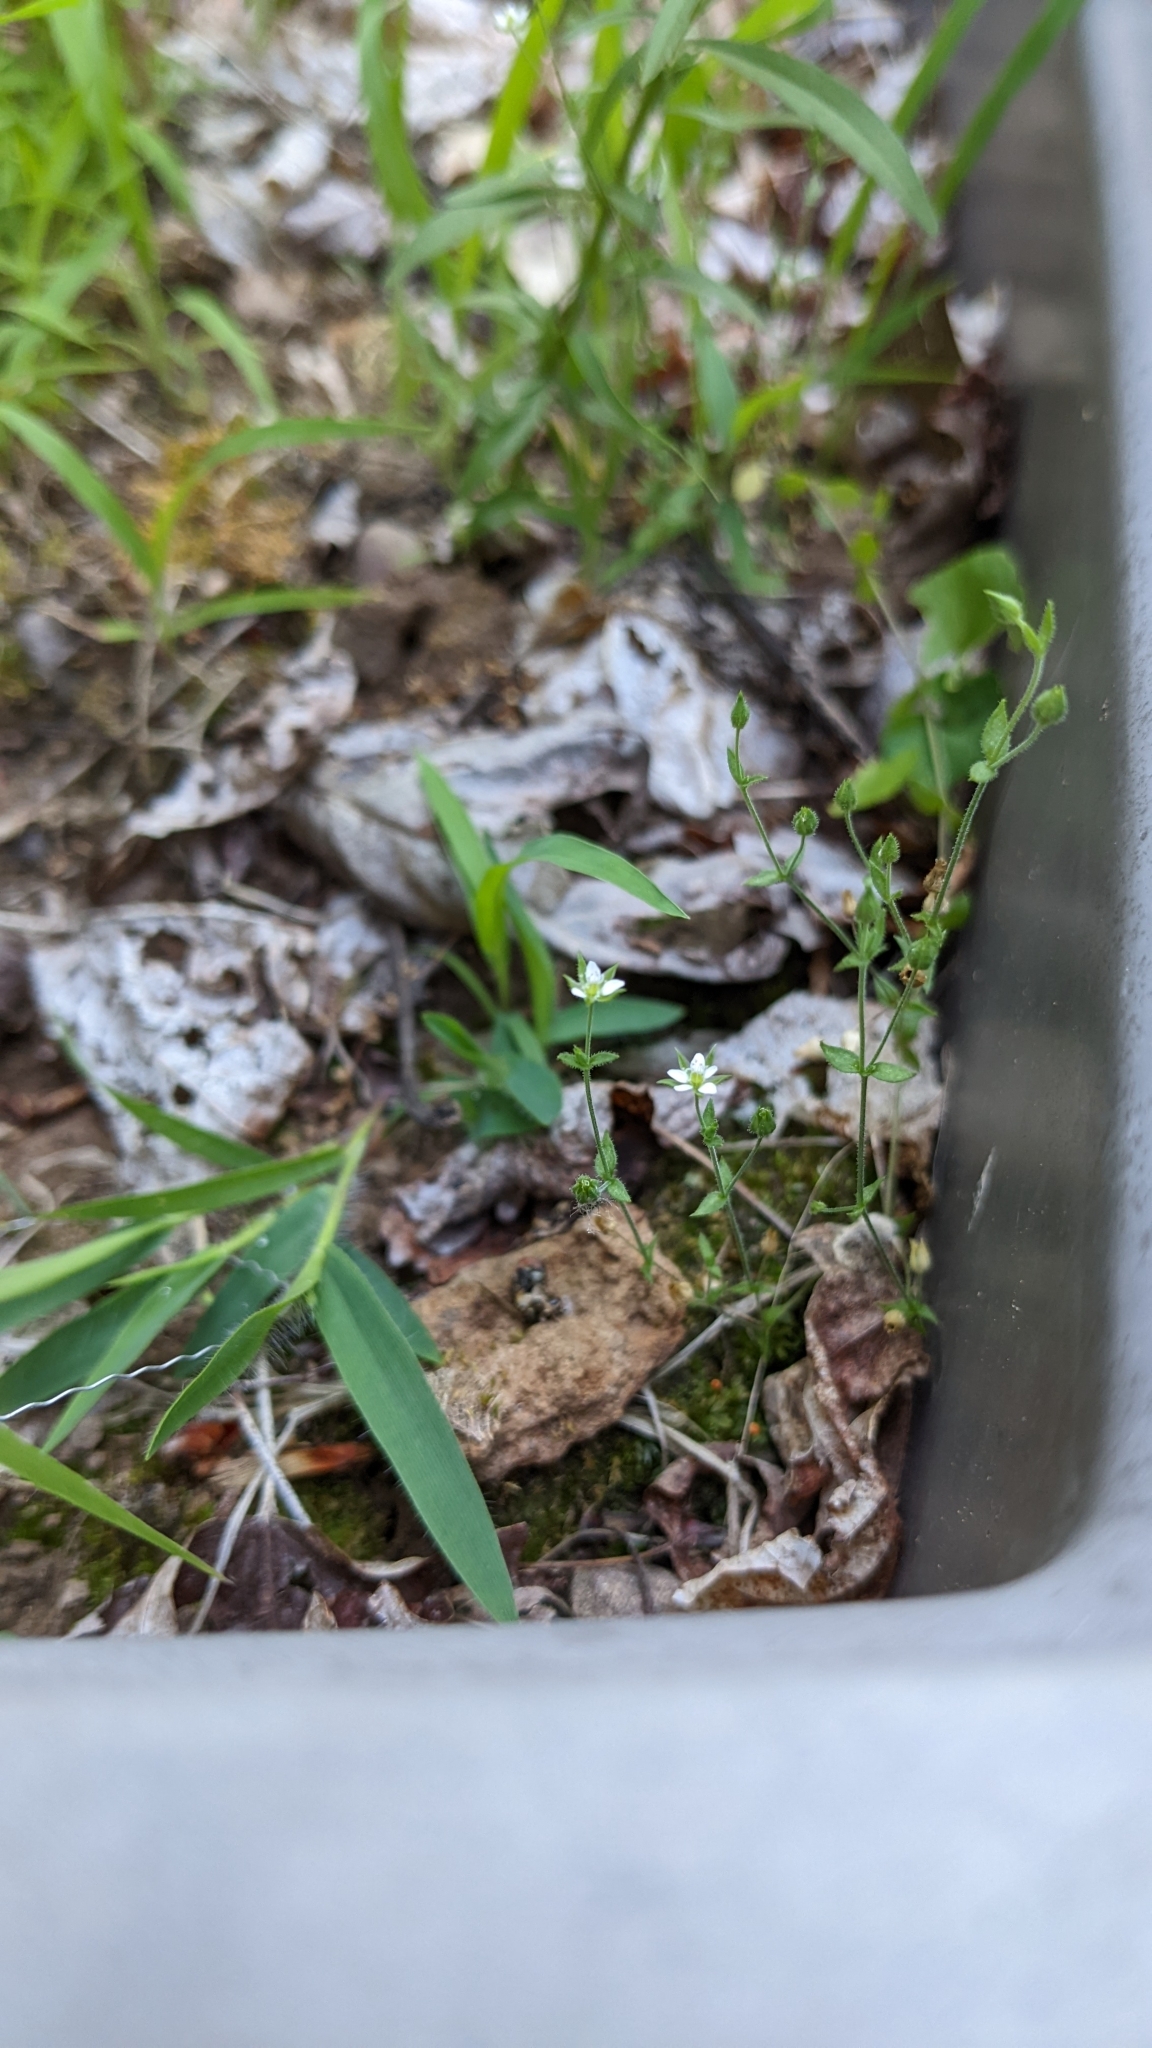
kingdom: Plantae
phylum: Tracheophyta
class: Magnoliopsida
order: Caryophyllales
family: Caryophyllaceae
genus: Arenaria
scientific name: Arenaria serpyllifolia
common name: Thyme-leaved sandwort
